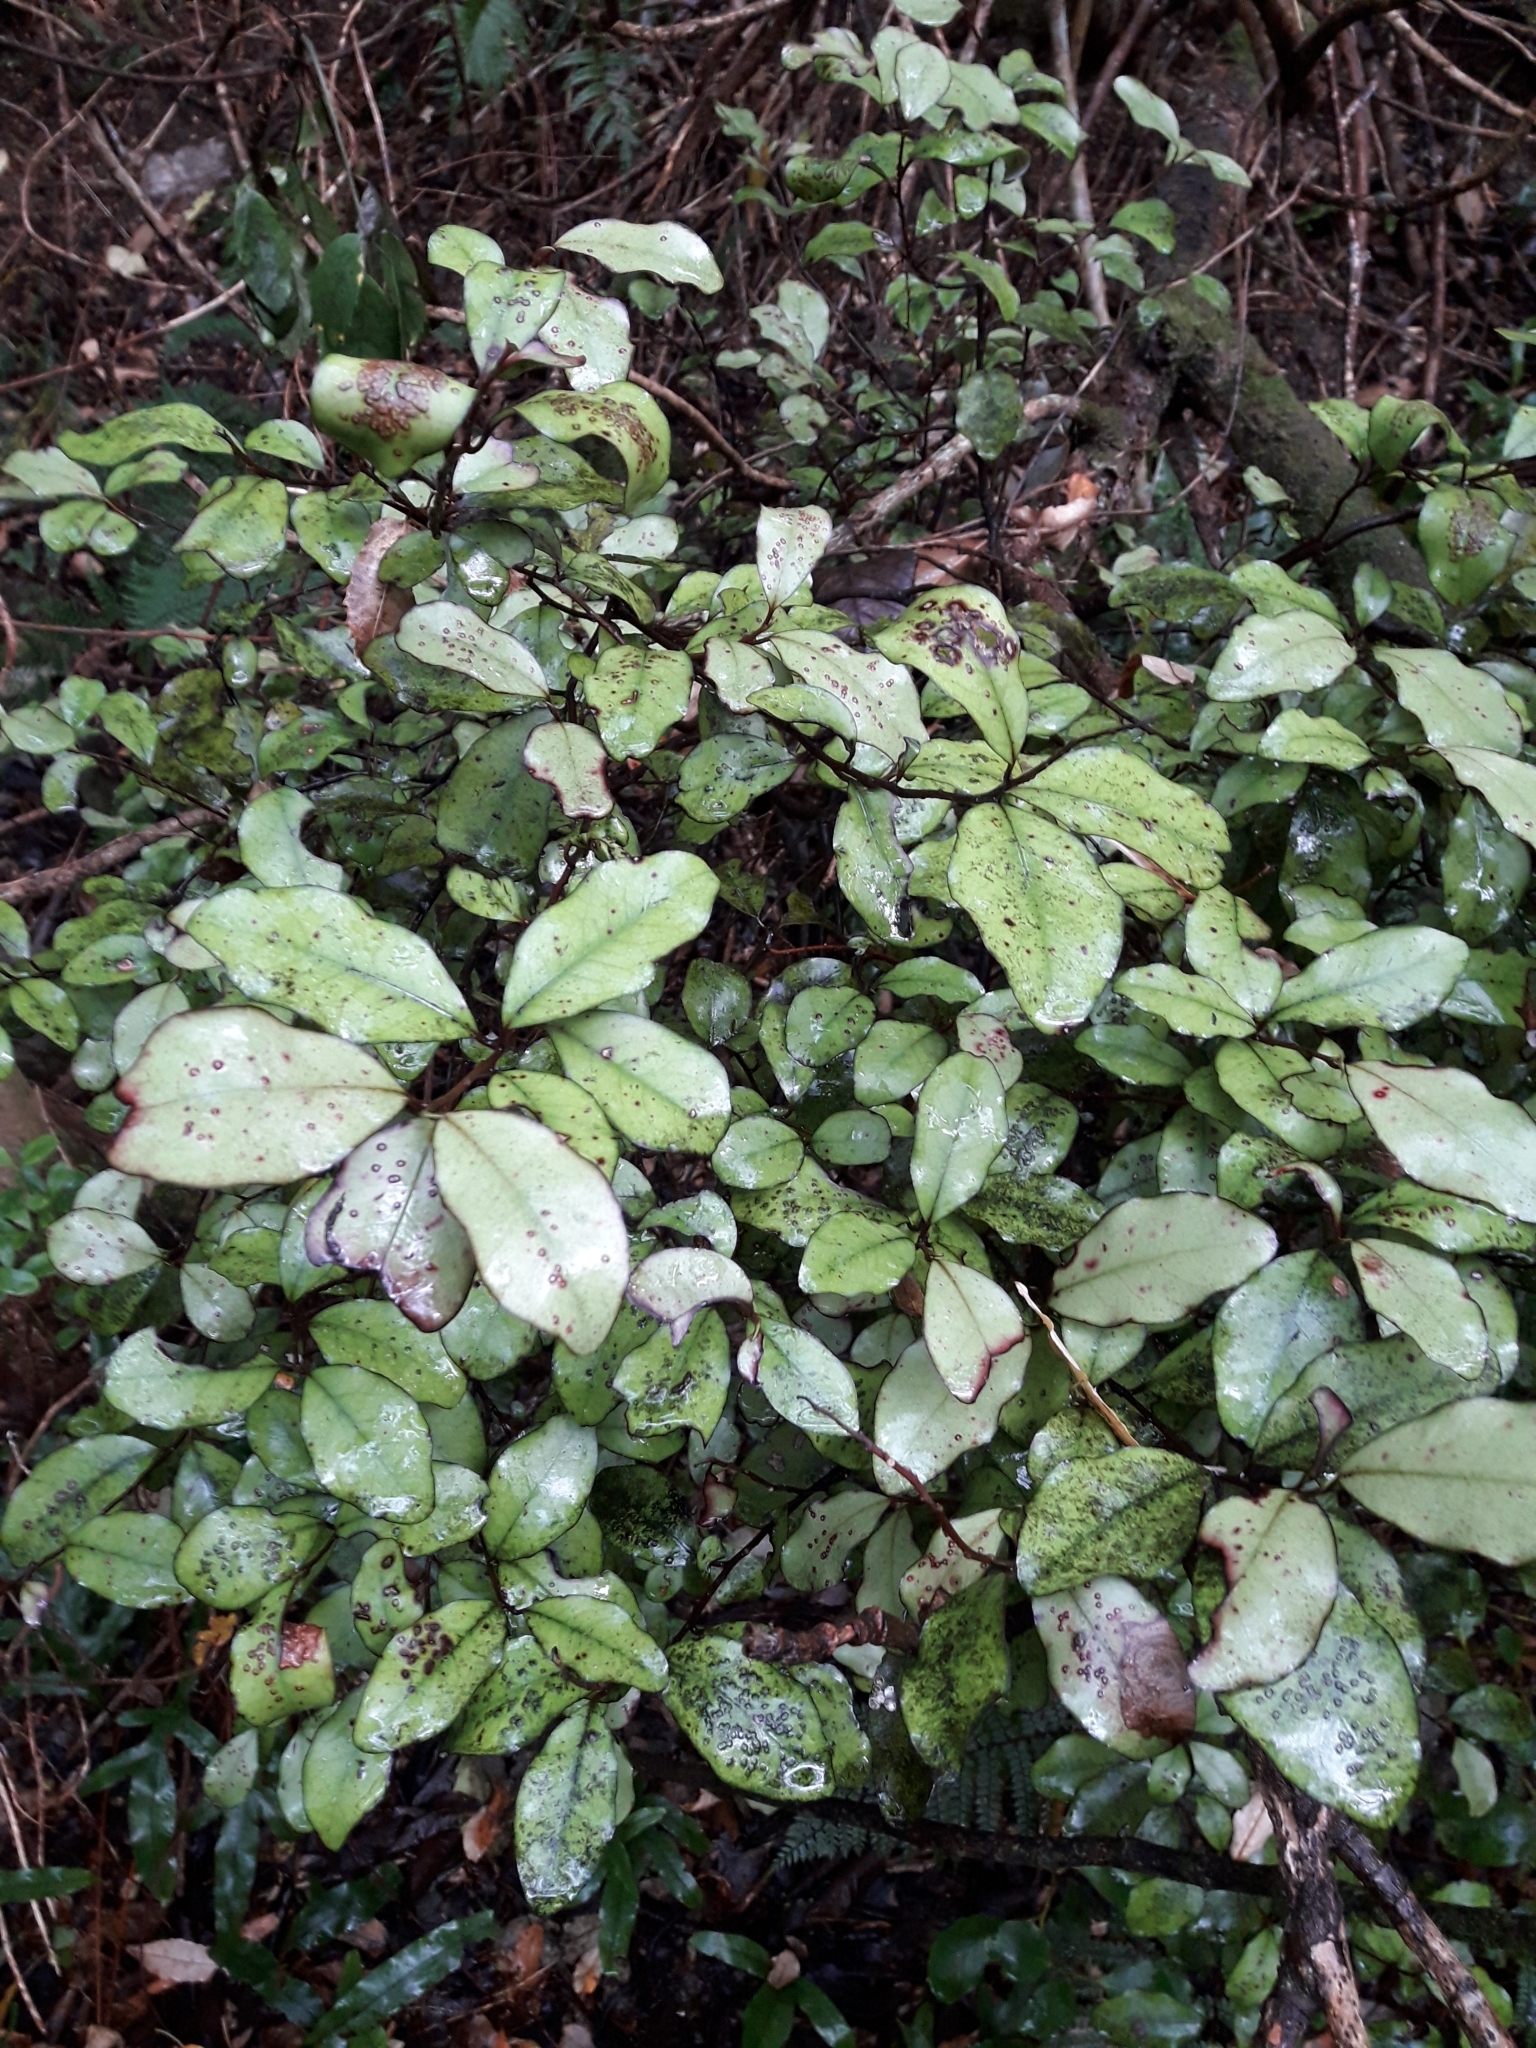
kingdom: Plantae
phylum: Tracheophyta
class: Magnoliopsida
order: Canellales
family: Winteraceae
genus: Pseudowintera
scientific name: Pseudowintera colorata
